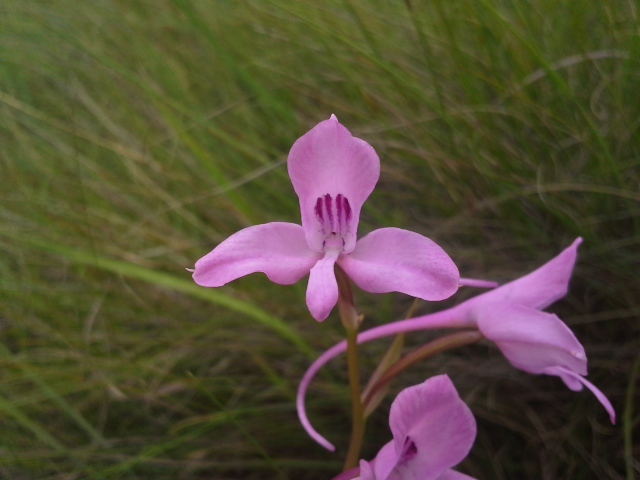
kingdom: Plantae
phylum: Tracheophyta
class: Liliopsida
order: Asparagales
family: Orchidaceae
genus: Disa
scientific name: Disa amoena
